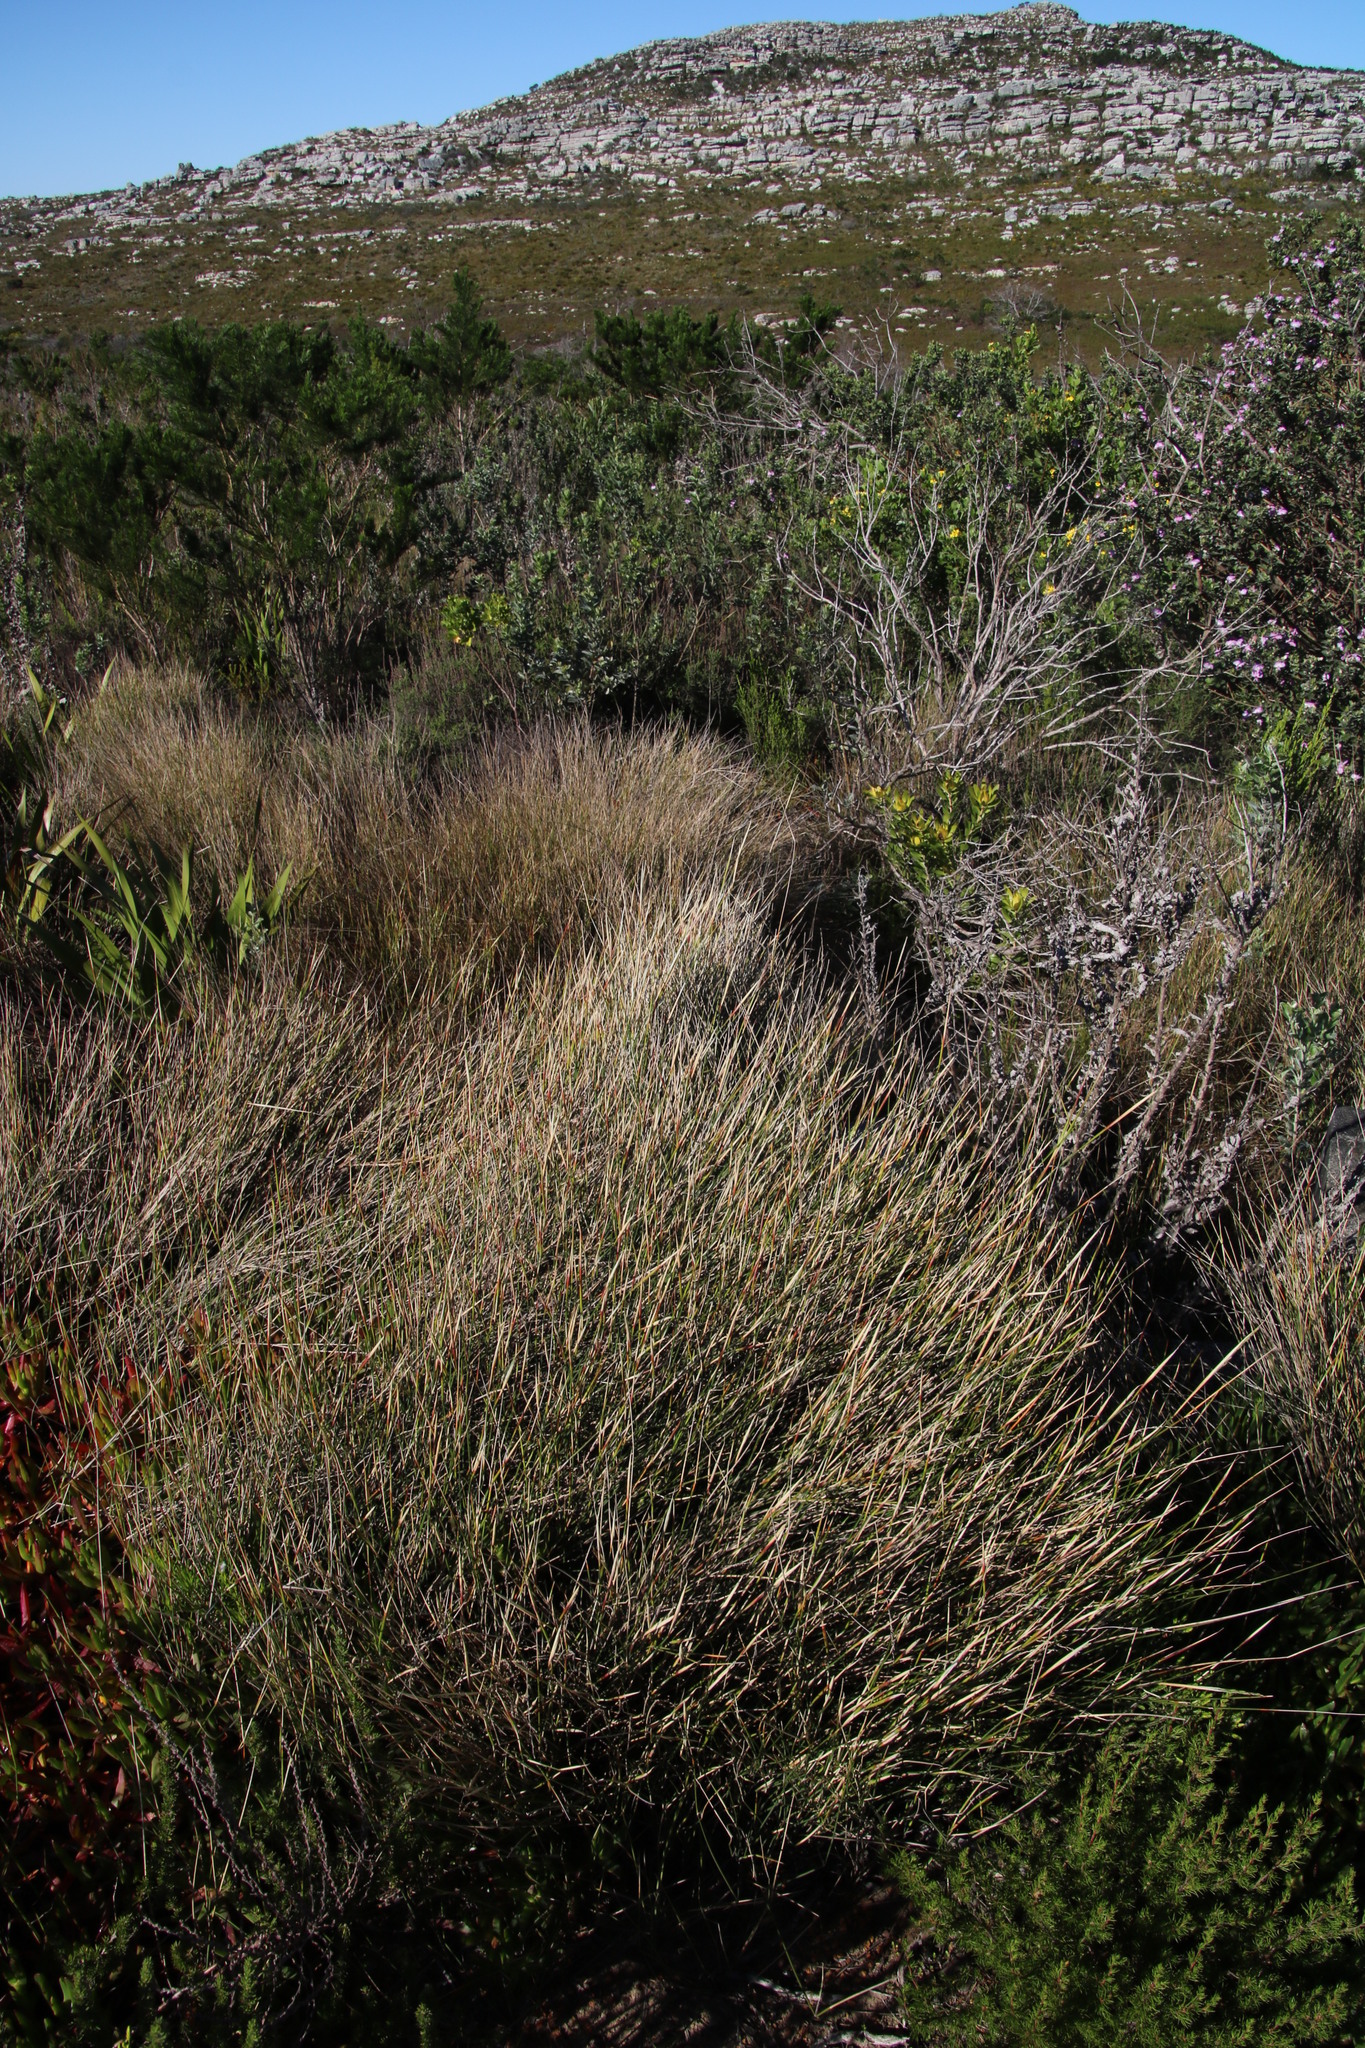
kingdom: Plantae
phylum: Tracheophyta
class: Liliopsida
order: Poales
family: Poaceae
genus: Ehrharta
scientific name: Ehrharta ramosa
